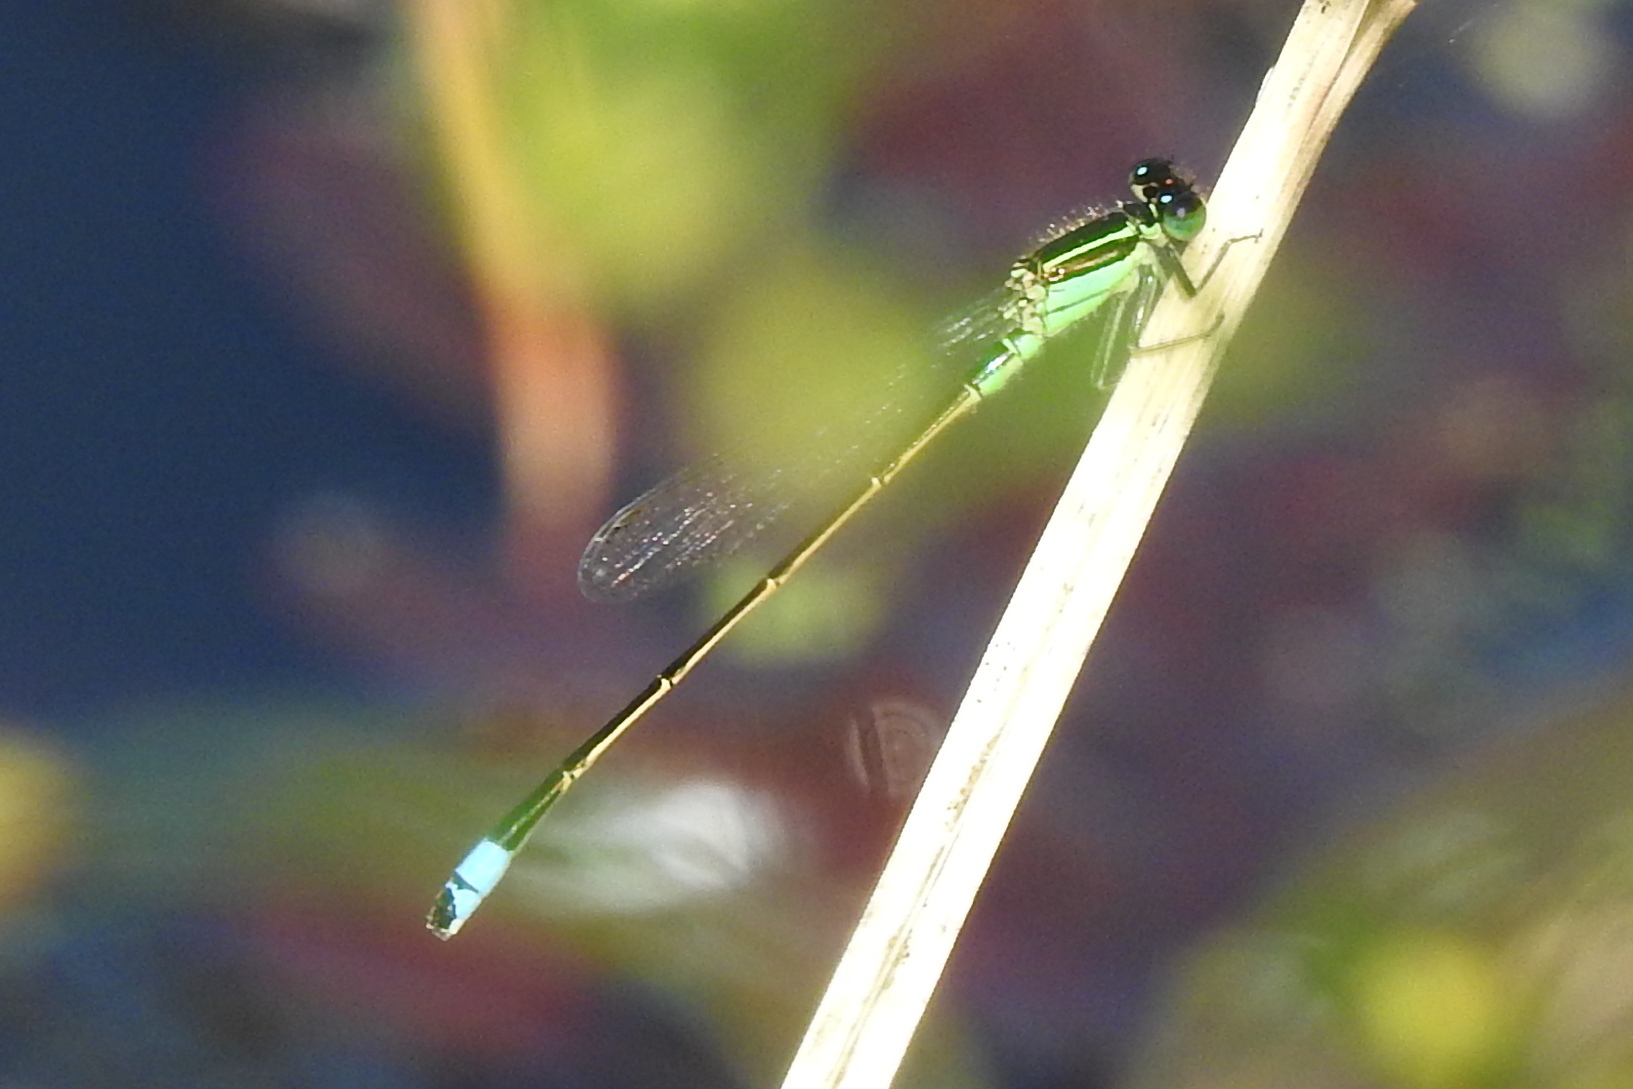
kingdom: Animalia
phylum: Arthropoda
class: Insecta
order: Odonata
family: Coenagrionidae
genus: Ischnura
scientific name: Ischnura ramburii
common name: Rambur's forktail
